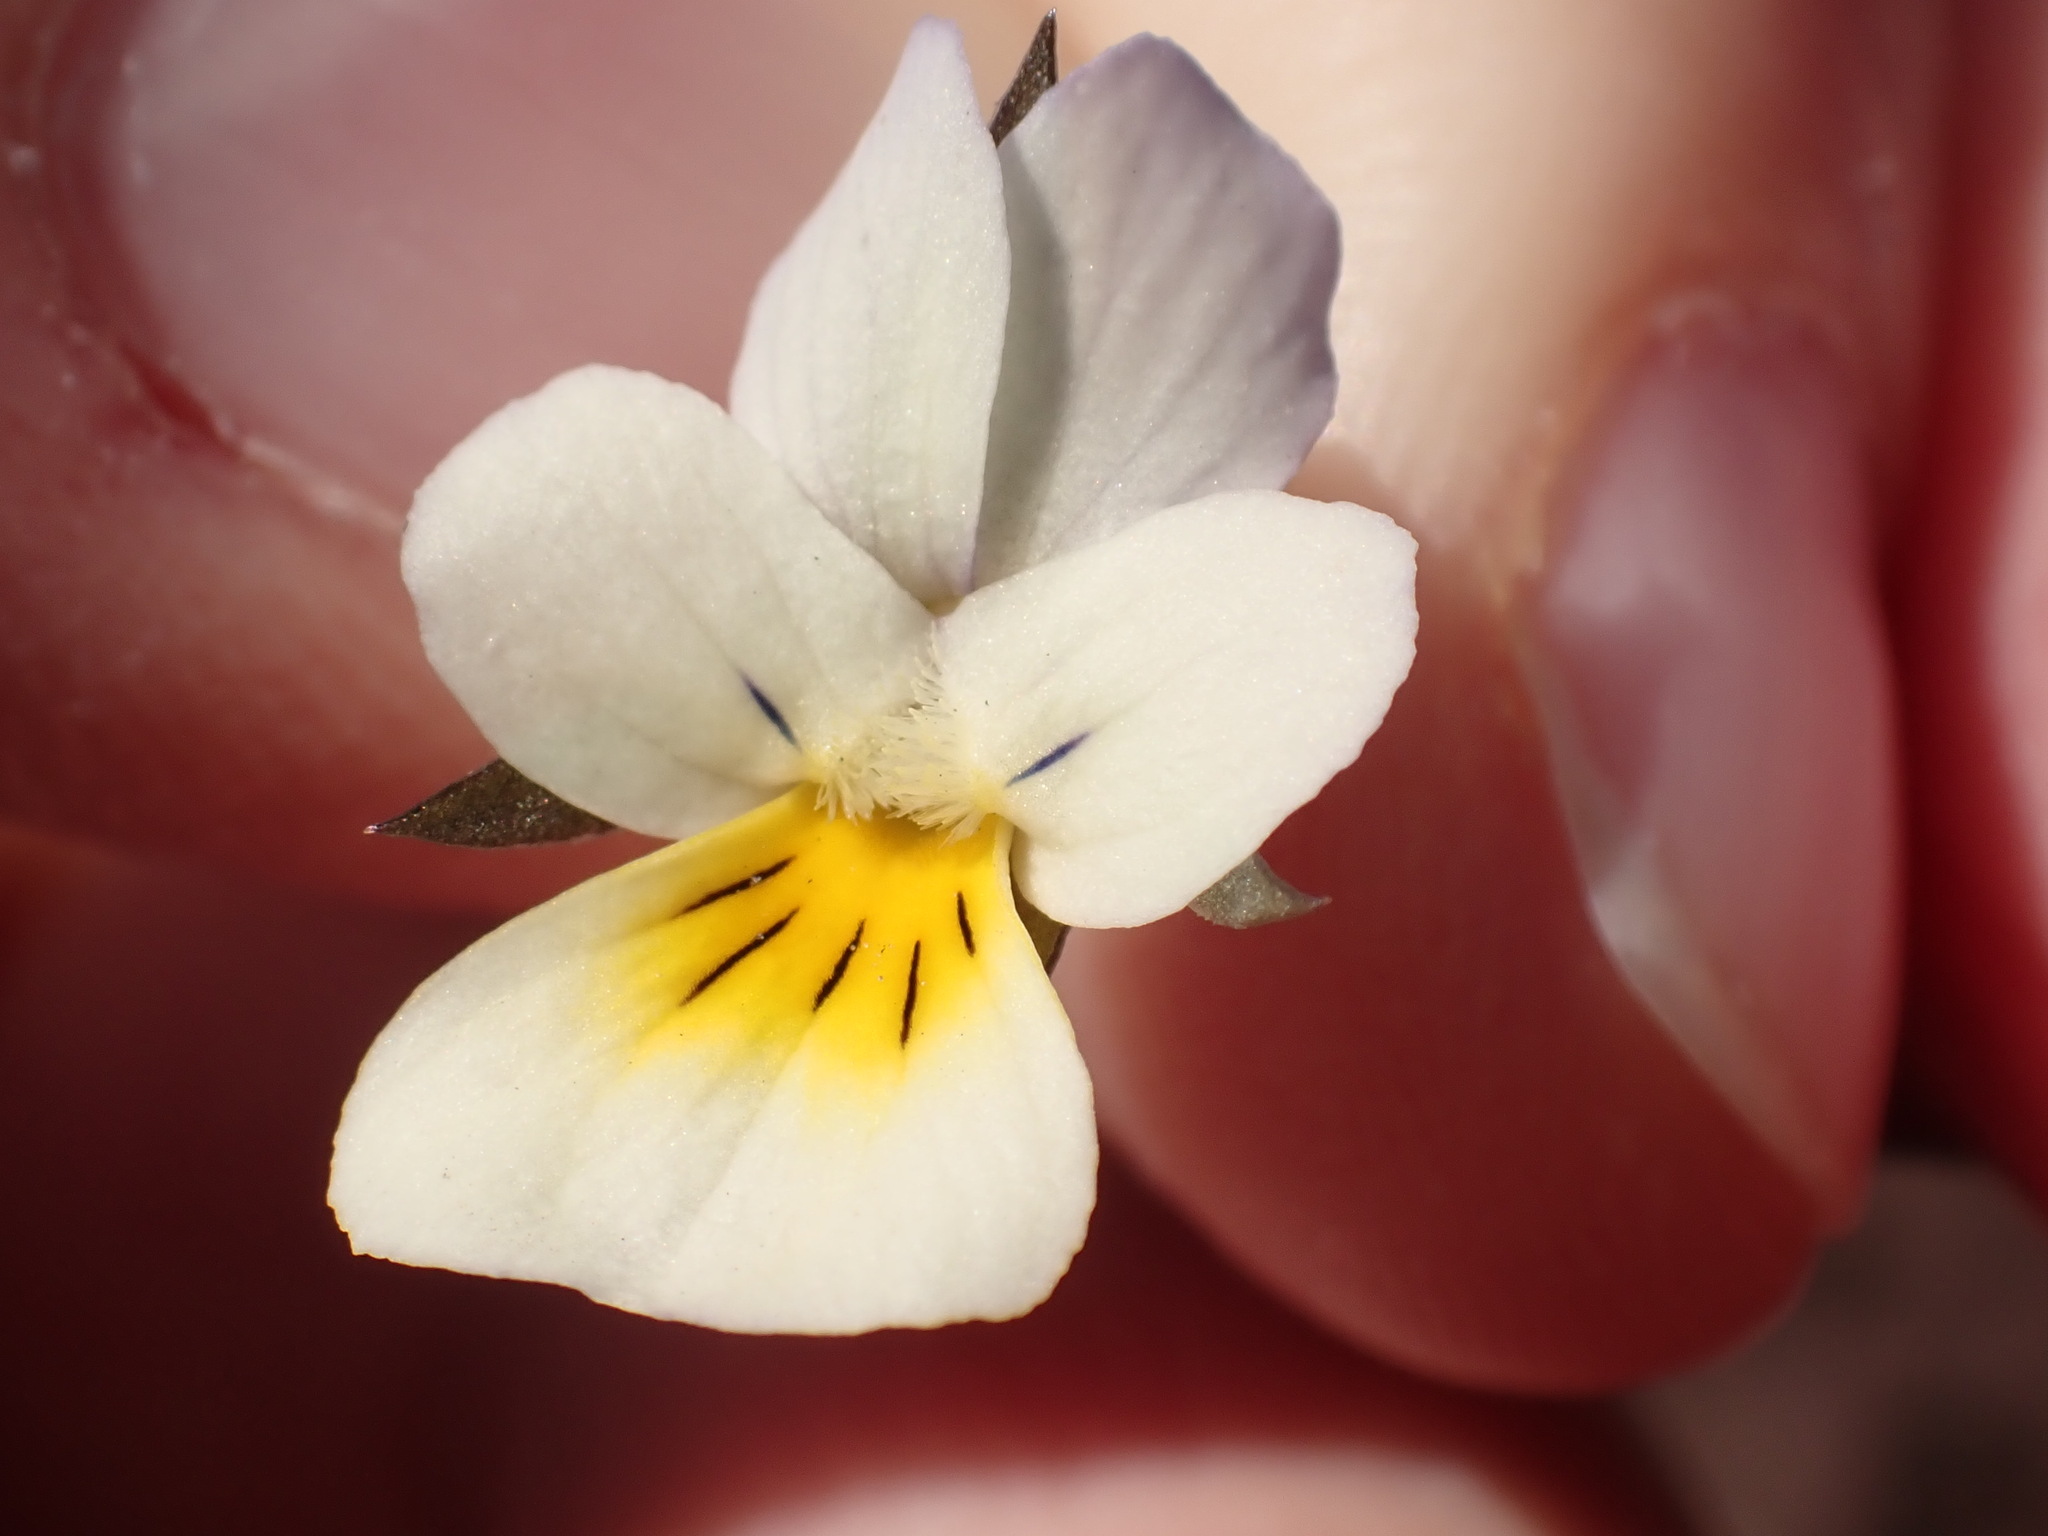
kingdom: Plantae
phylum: Tracheophyta
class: Magnoliopsida
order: Malpighiales
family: Violaceae
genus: Viola
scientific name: Viola arvensis
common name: Field pansy
